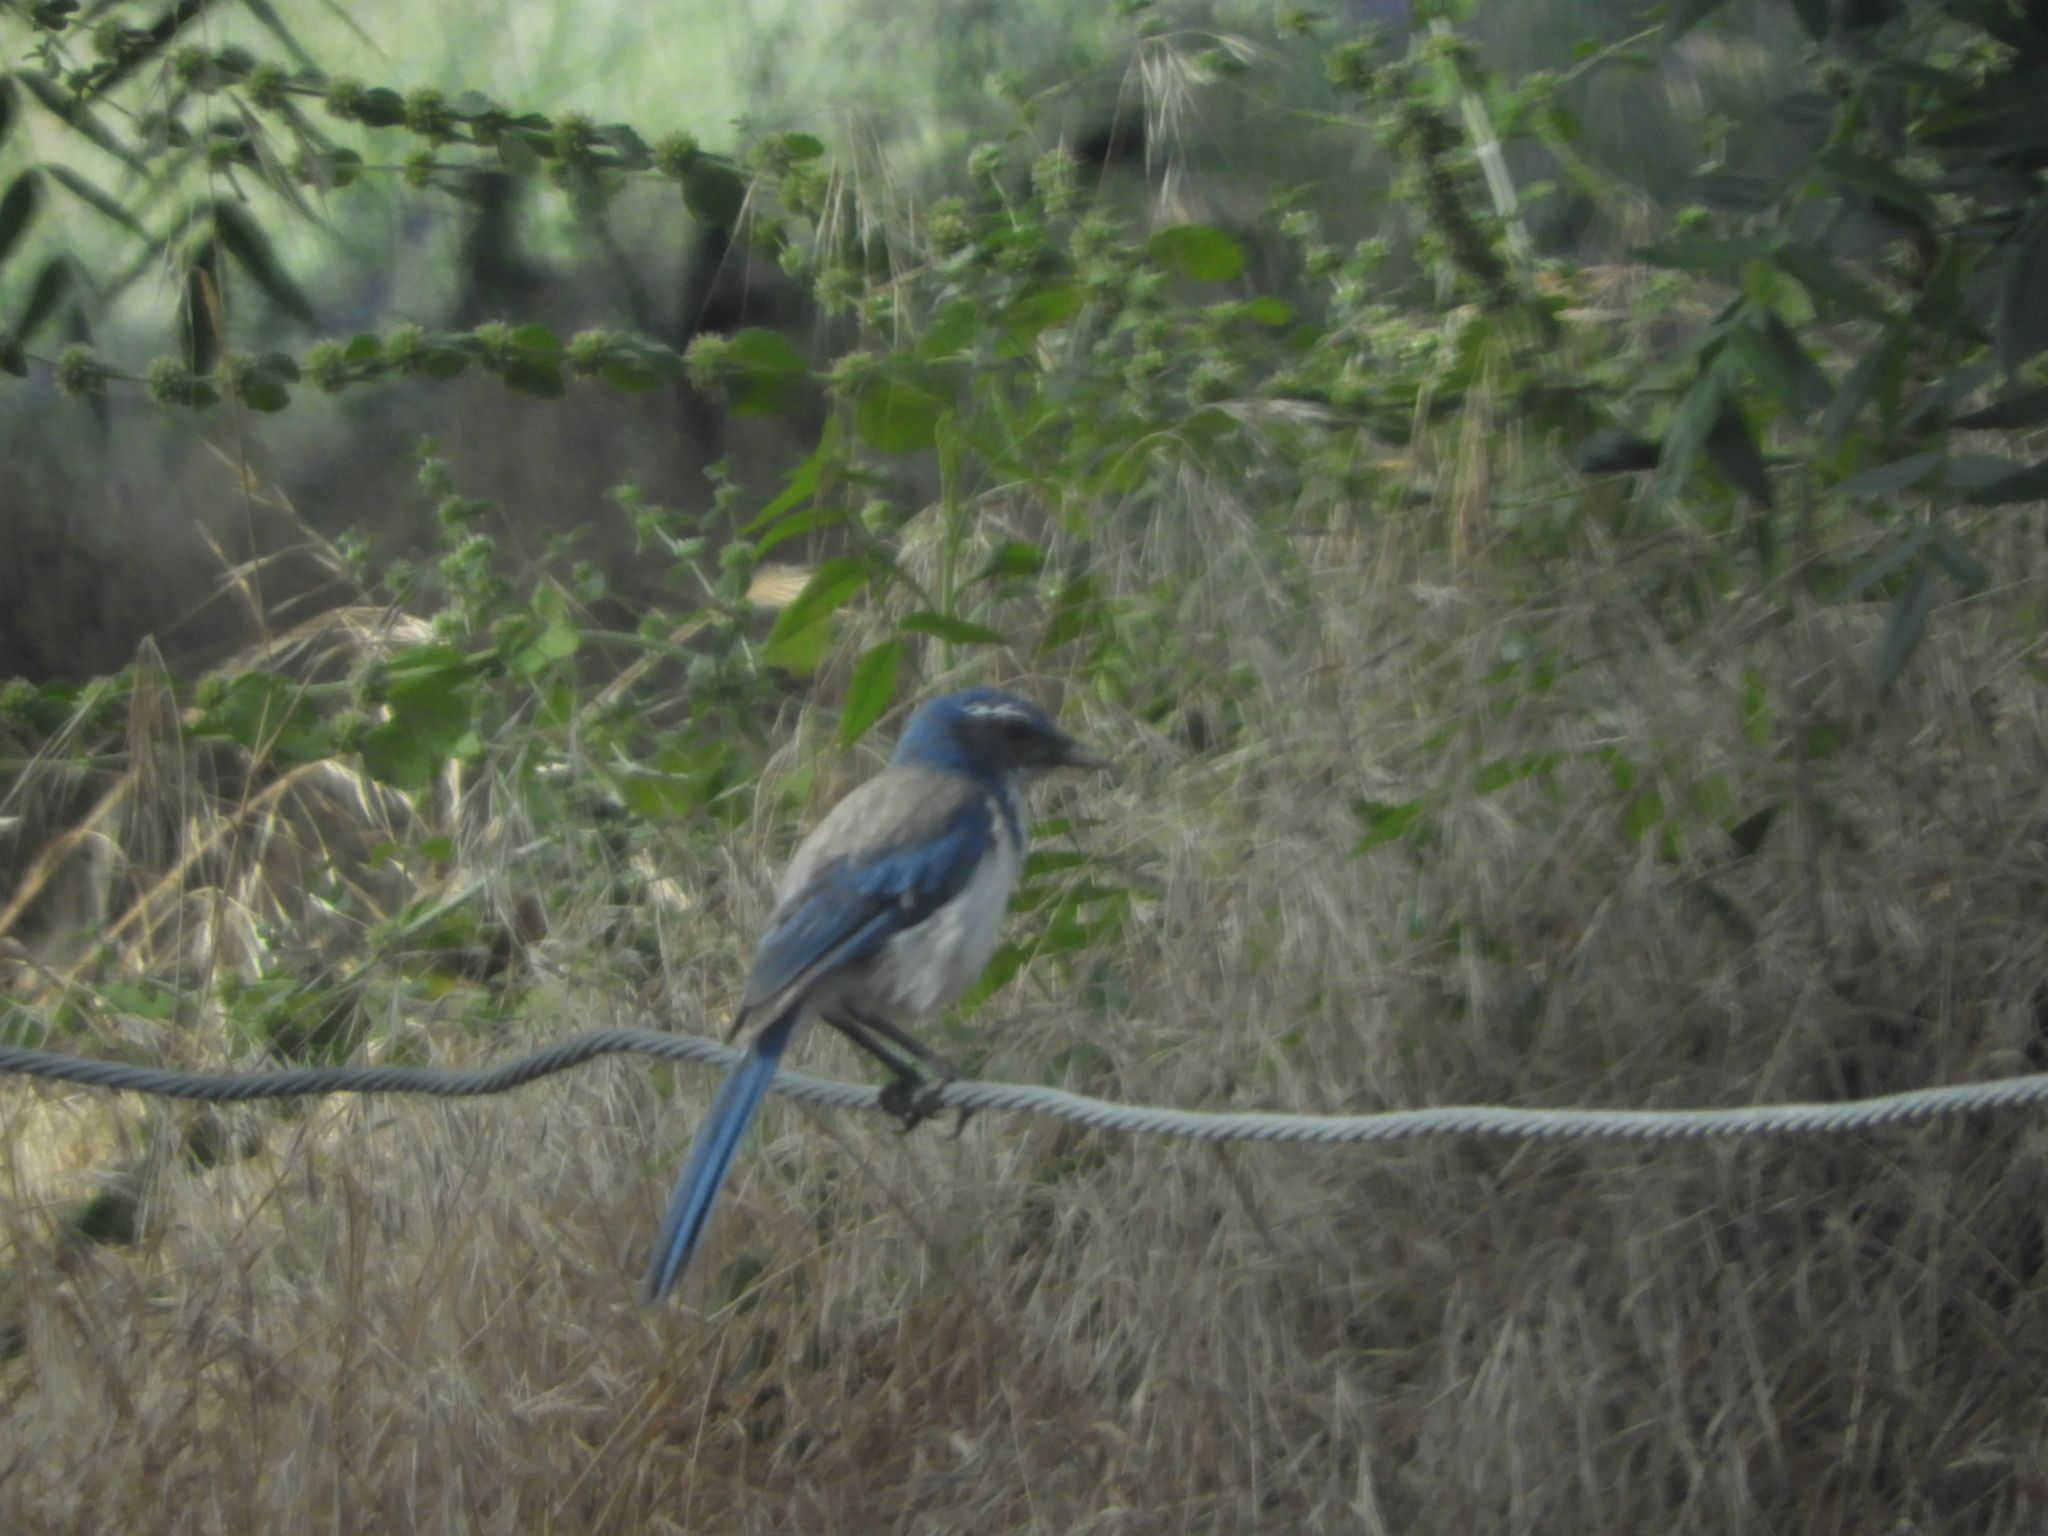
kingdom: Animalia
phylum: Chordata
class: Aves
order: Passeriformes
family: Corvidae
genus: Aphelocoma
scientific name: Aphelocoma californica
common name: California scrub-jay
